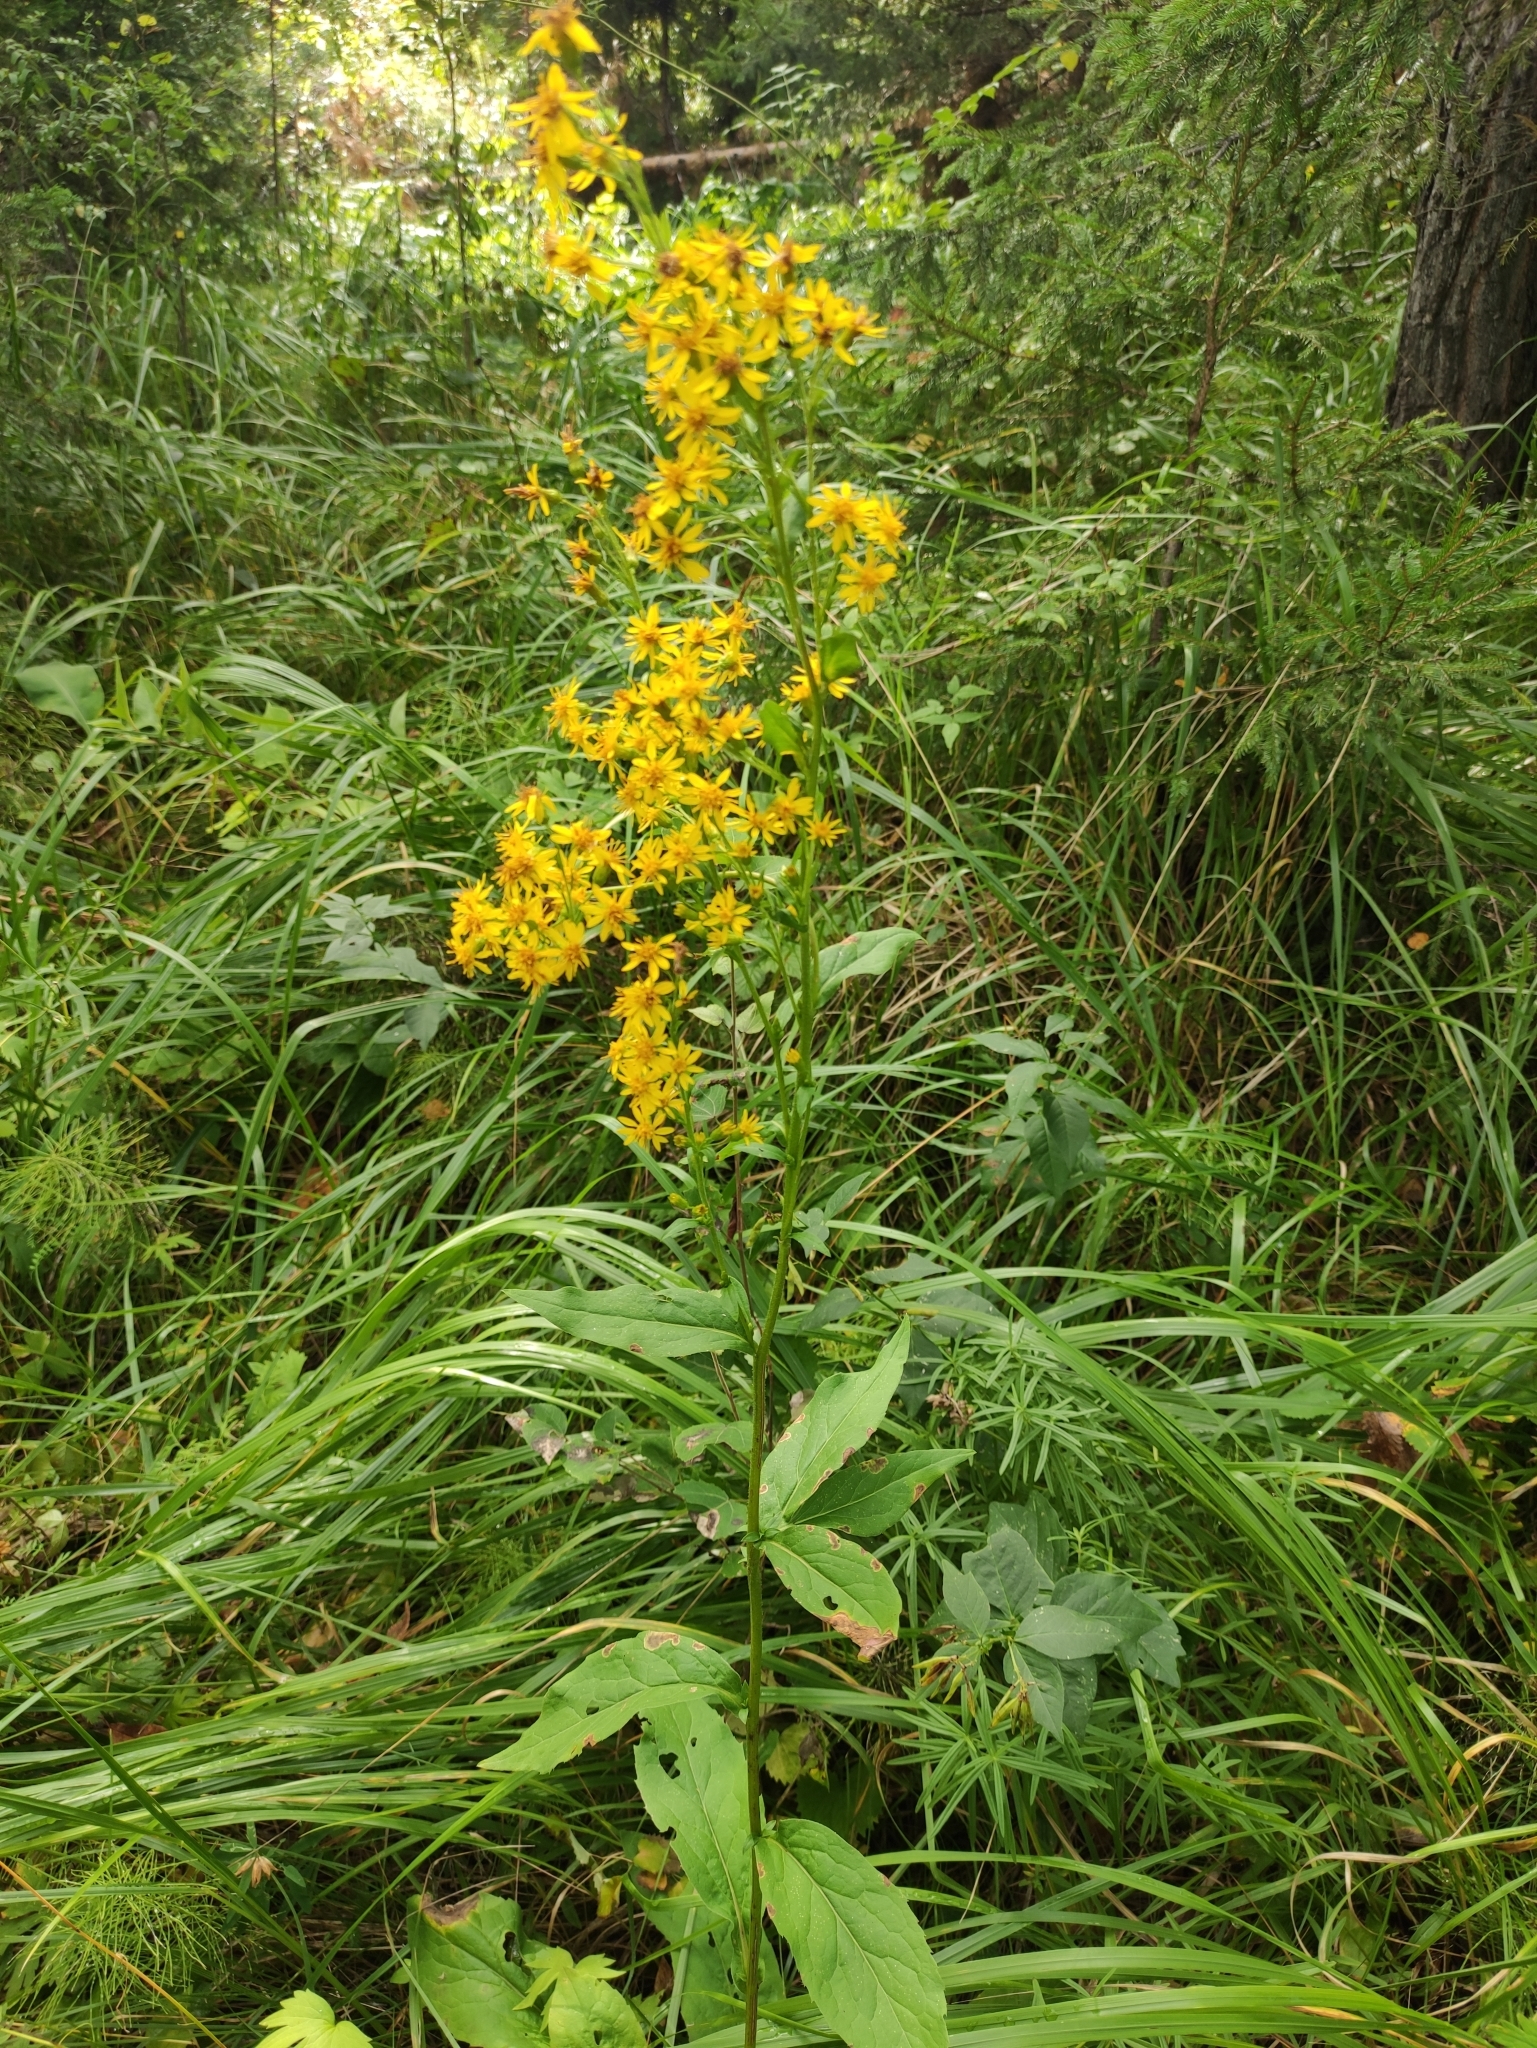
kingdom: Plantae
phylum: Tracheophyta
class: Magnoliopsida
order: Asterales
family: Asteraceae
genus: Solidago
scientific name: Solidago dahurica
